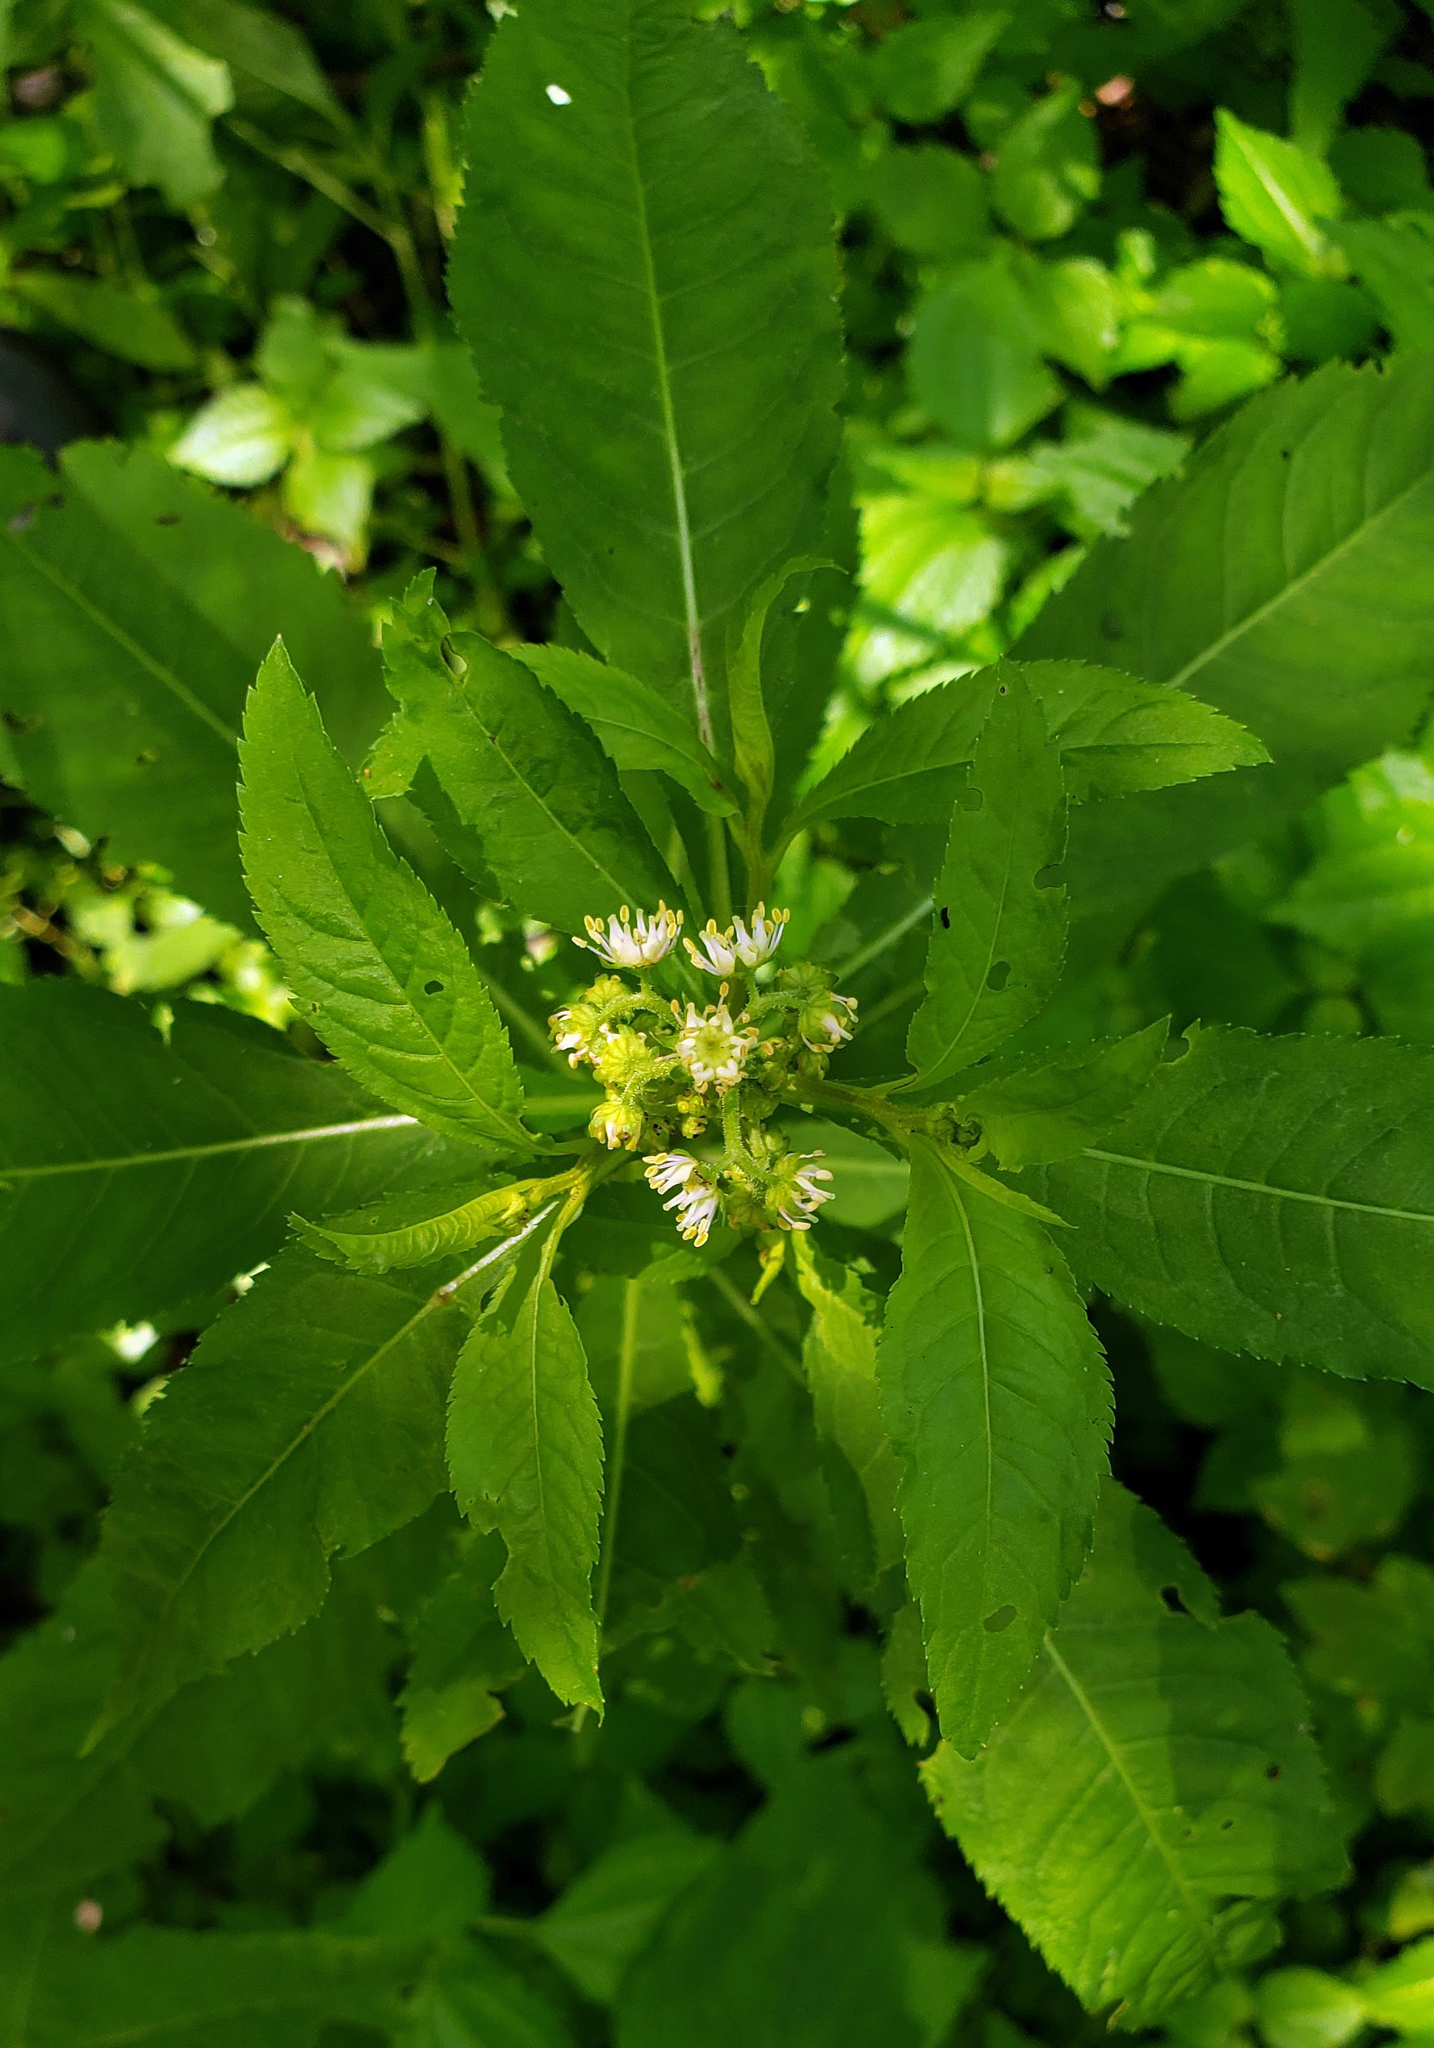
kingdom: Plantae
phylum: Tracheophyta
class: Magnoliopsida
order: Saxifragales
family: Penthoraceae
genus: Penthorum
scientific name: Penthorum sedoides
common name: Ditch stonecrop
